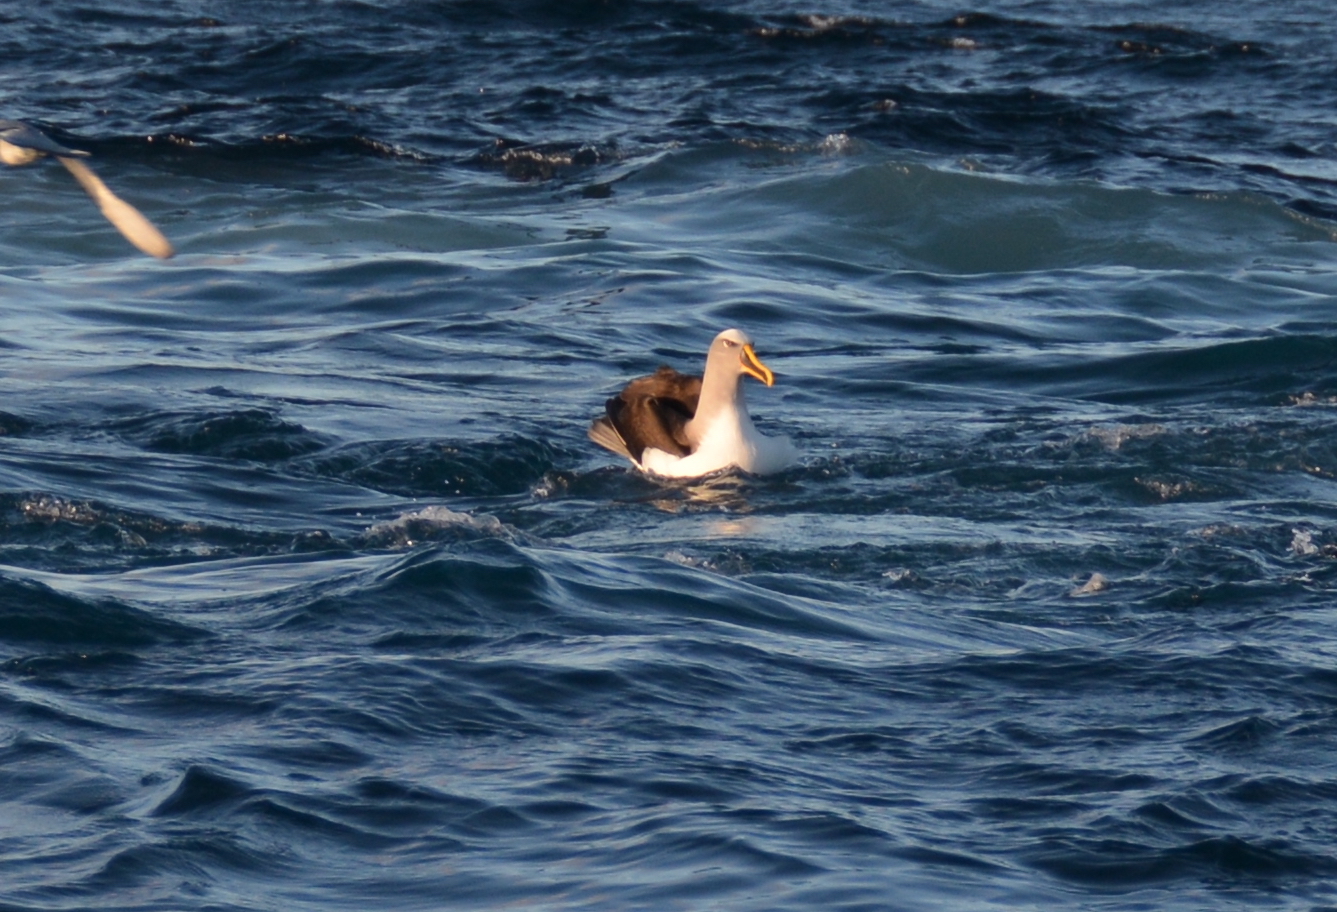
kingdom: Animalia
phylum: Chordata
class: Aves
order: Procellariiformes
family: Diomedeidae
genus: Thalassarche
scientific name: Thalassarche bulleri
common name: Buller's albatross
